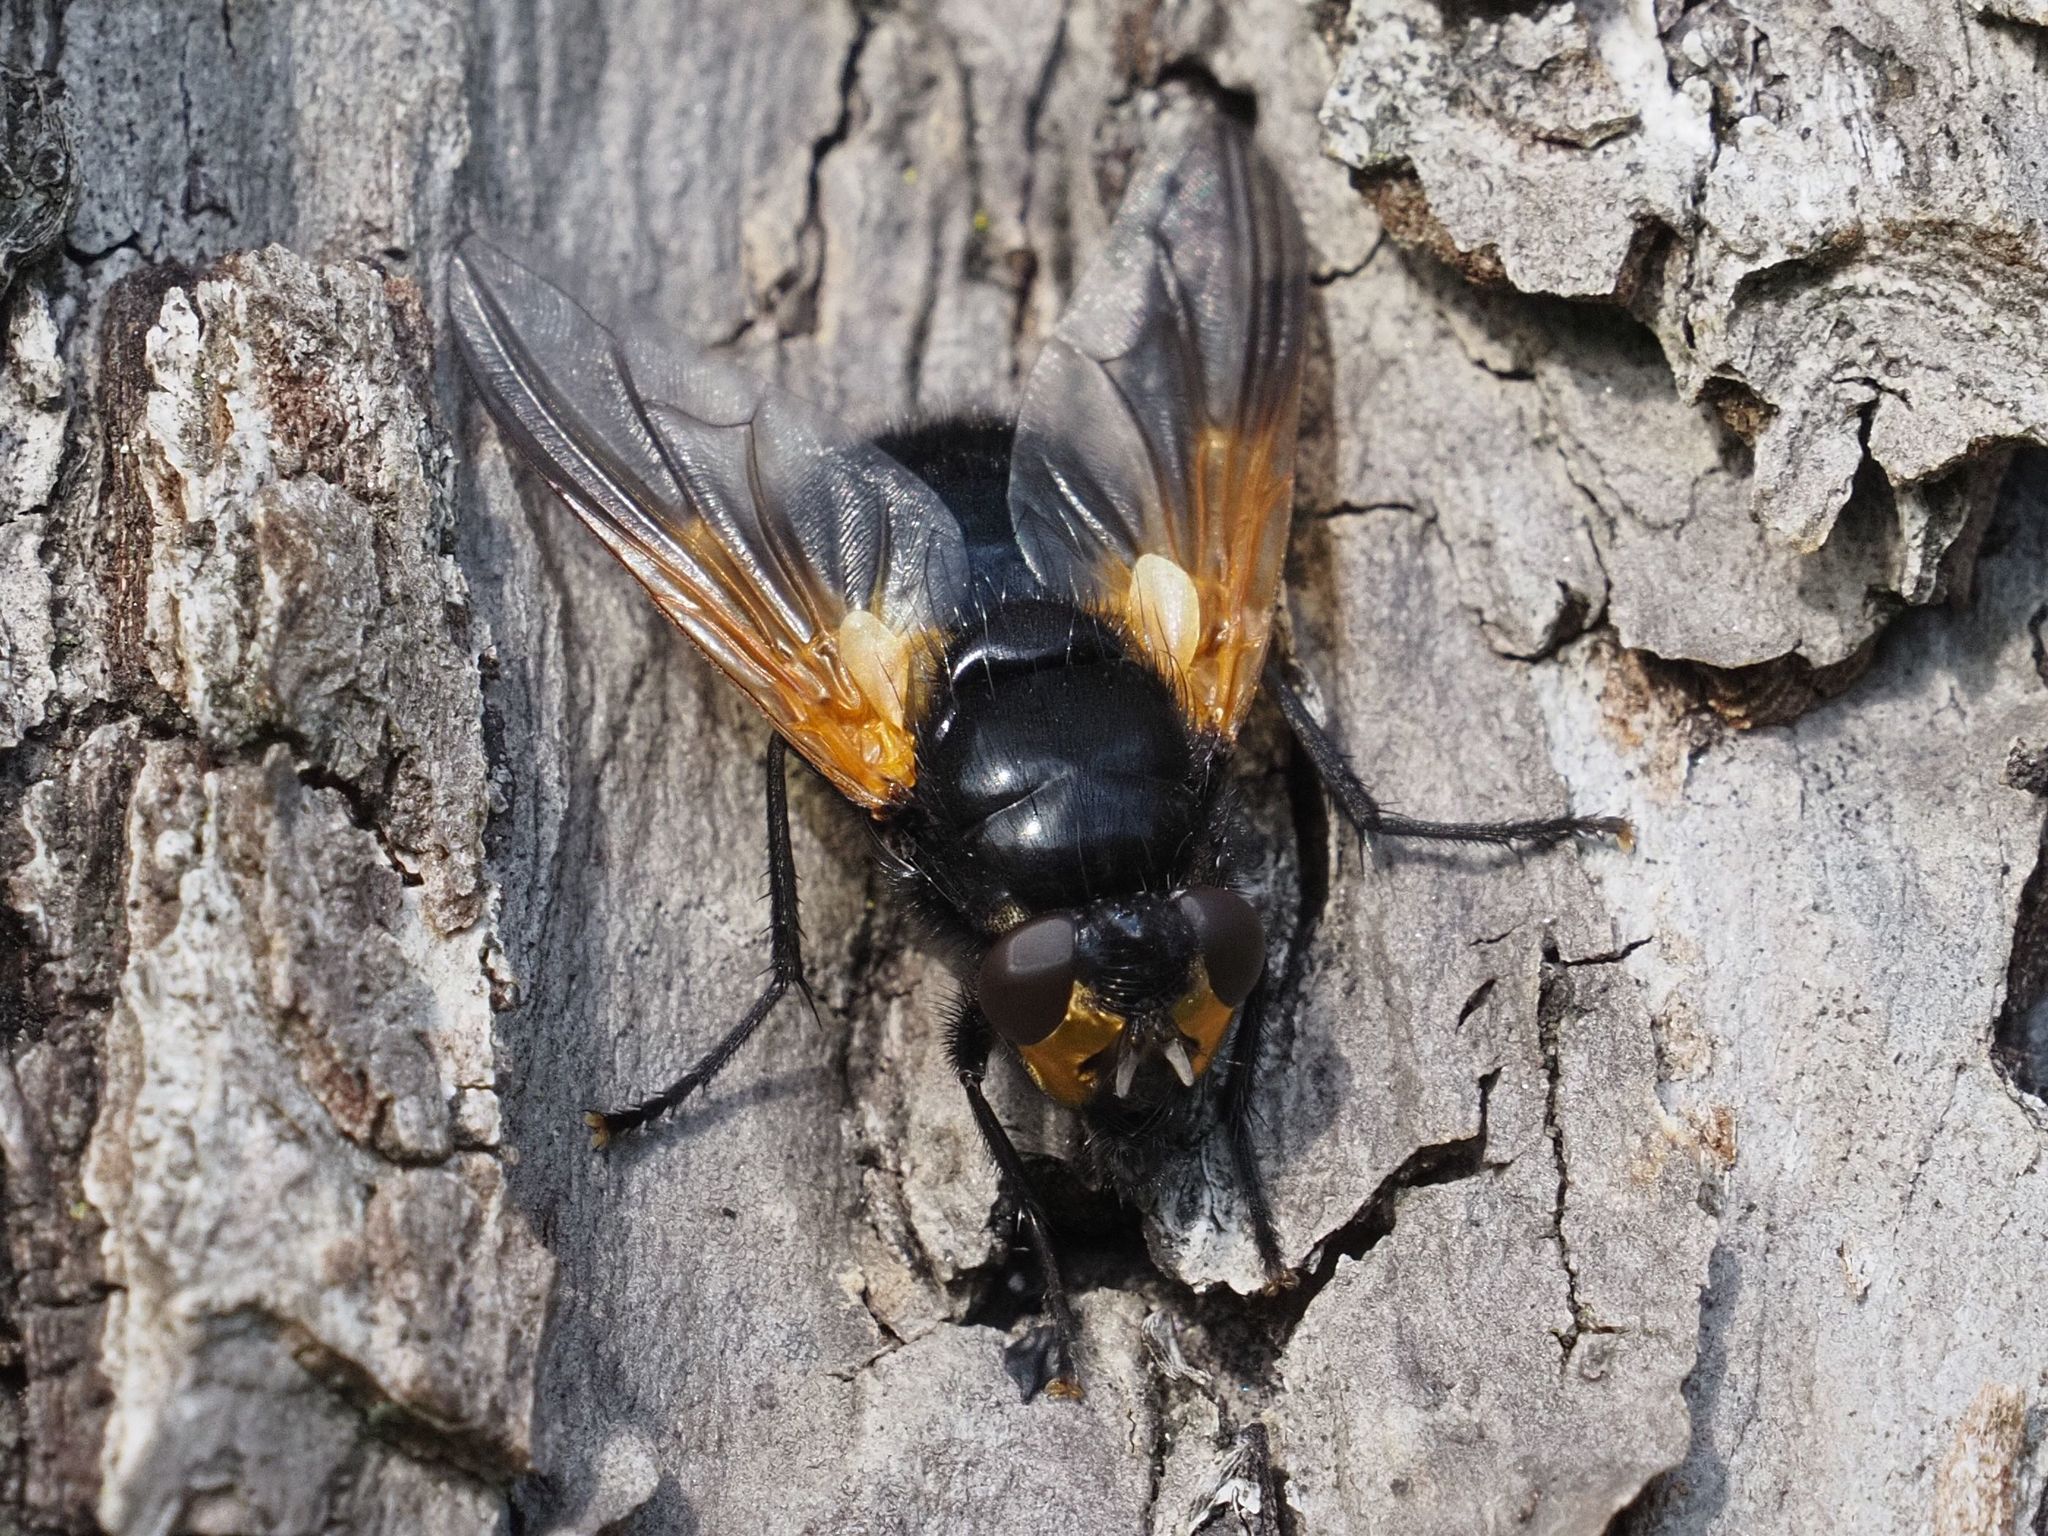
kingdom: Animalia
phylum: Arthropoda
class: Insecta
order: Diptera
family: Muscidae
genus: Mesembrina
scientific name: Mesembrina meridiana
